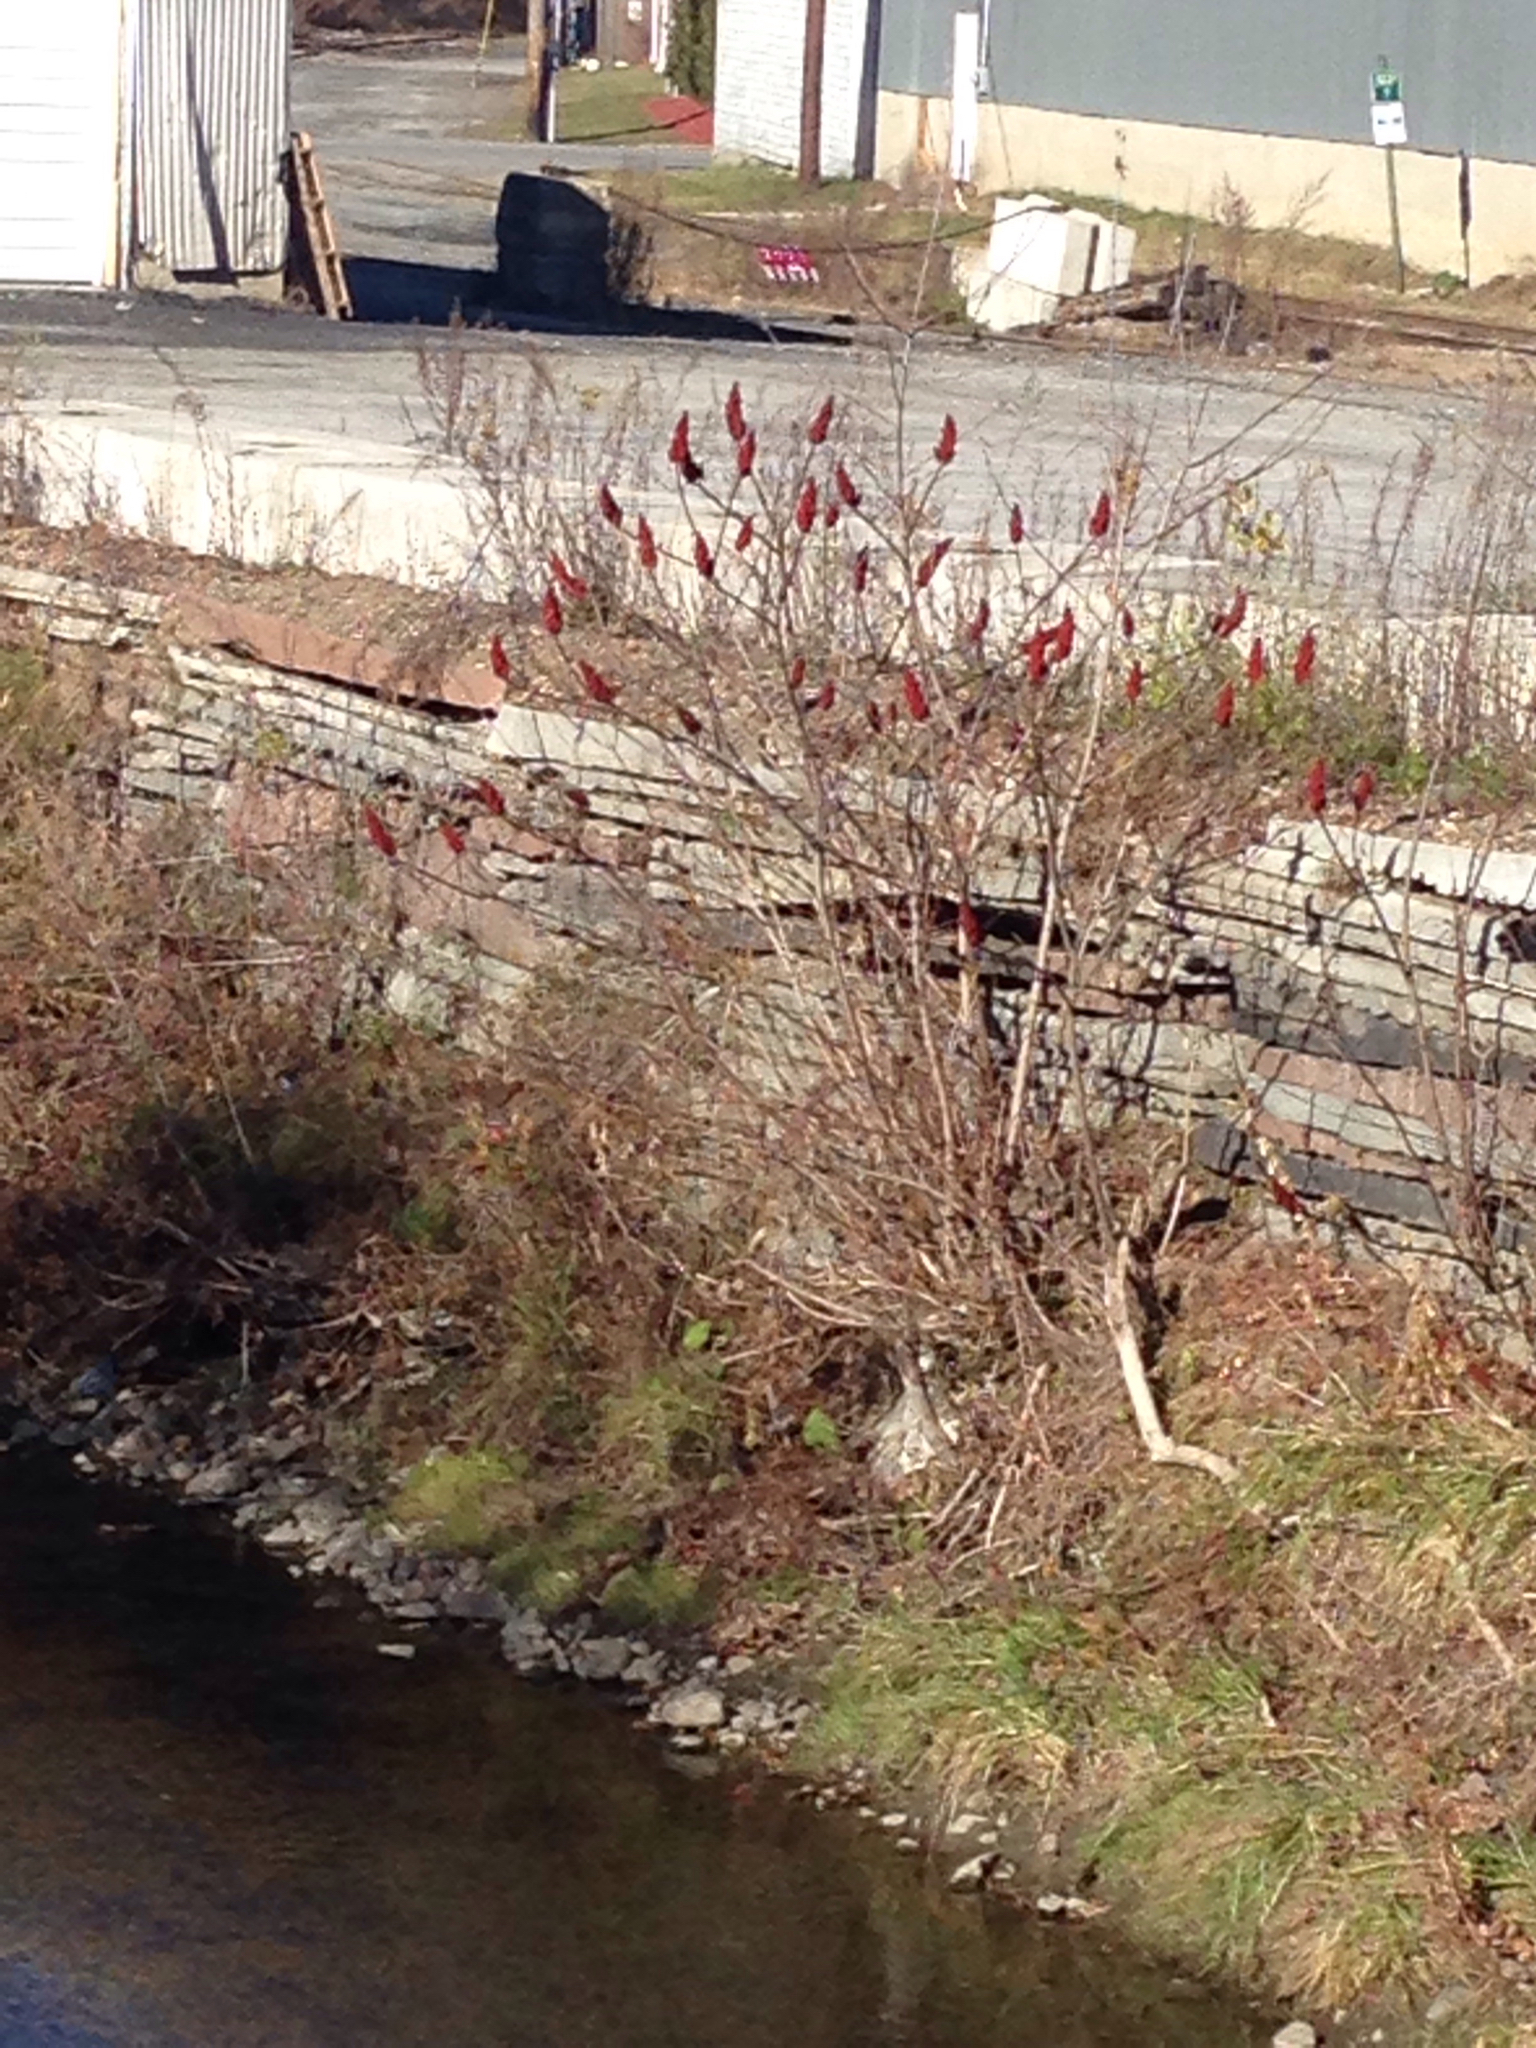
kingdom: Plantae
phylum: Tracheophyta
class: Magnoliopsida
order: Sapindales
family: Anacardiaceae
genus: Rhus
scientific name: Rhus typhina
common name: Staghorn sumac
